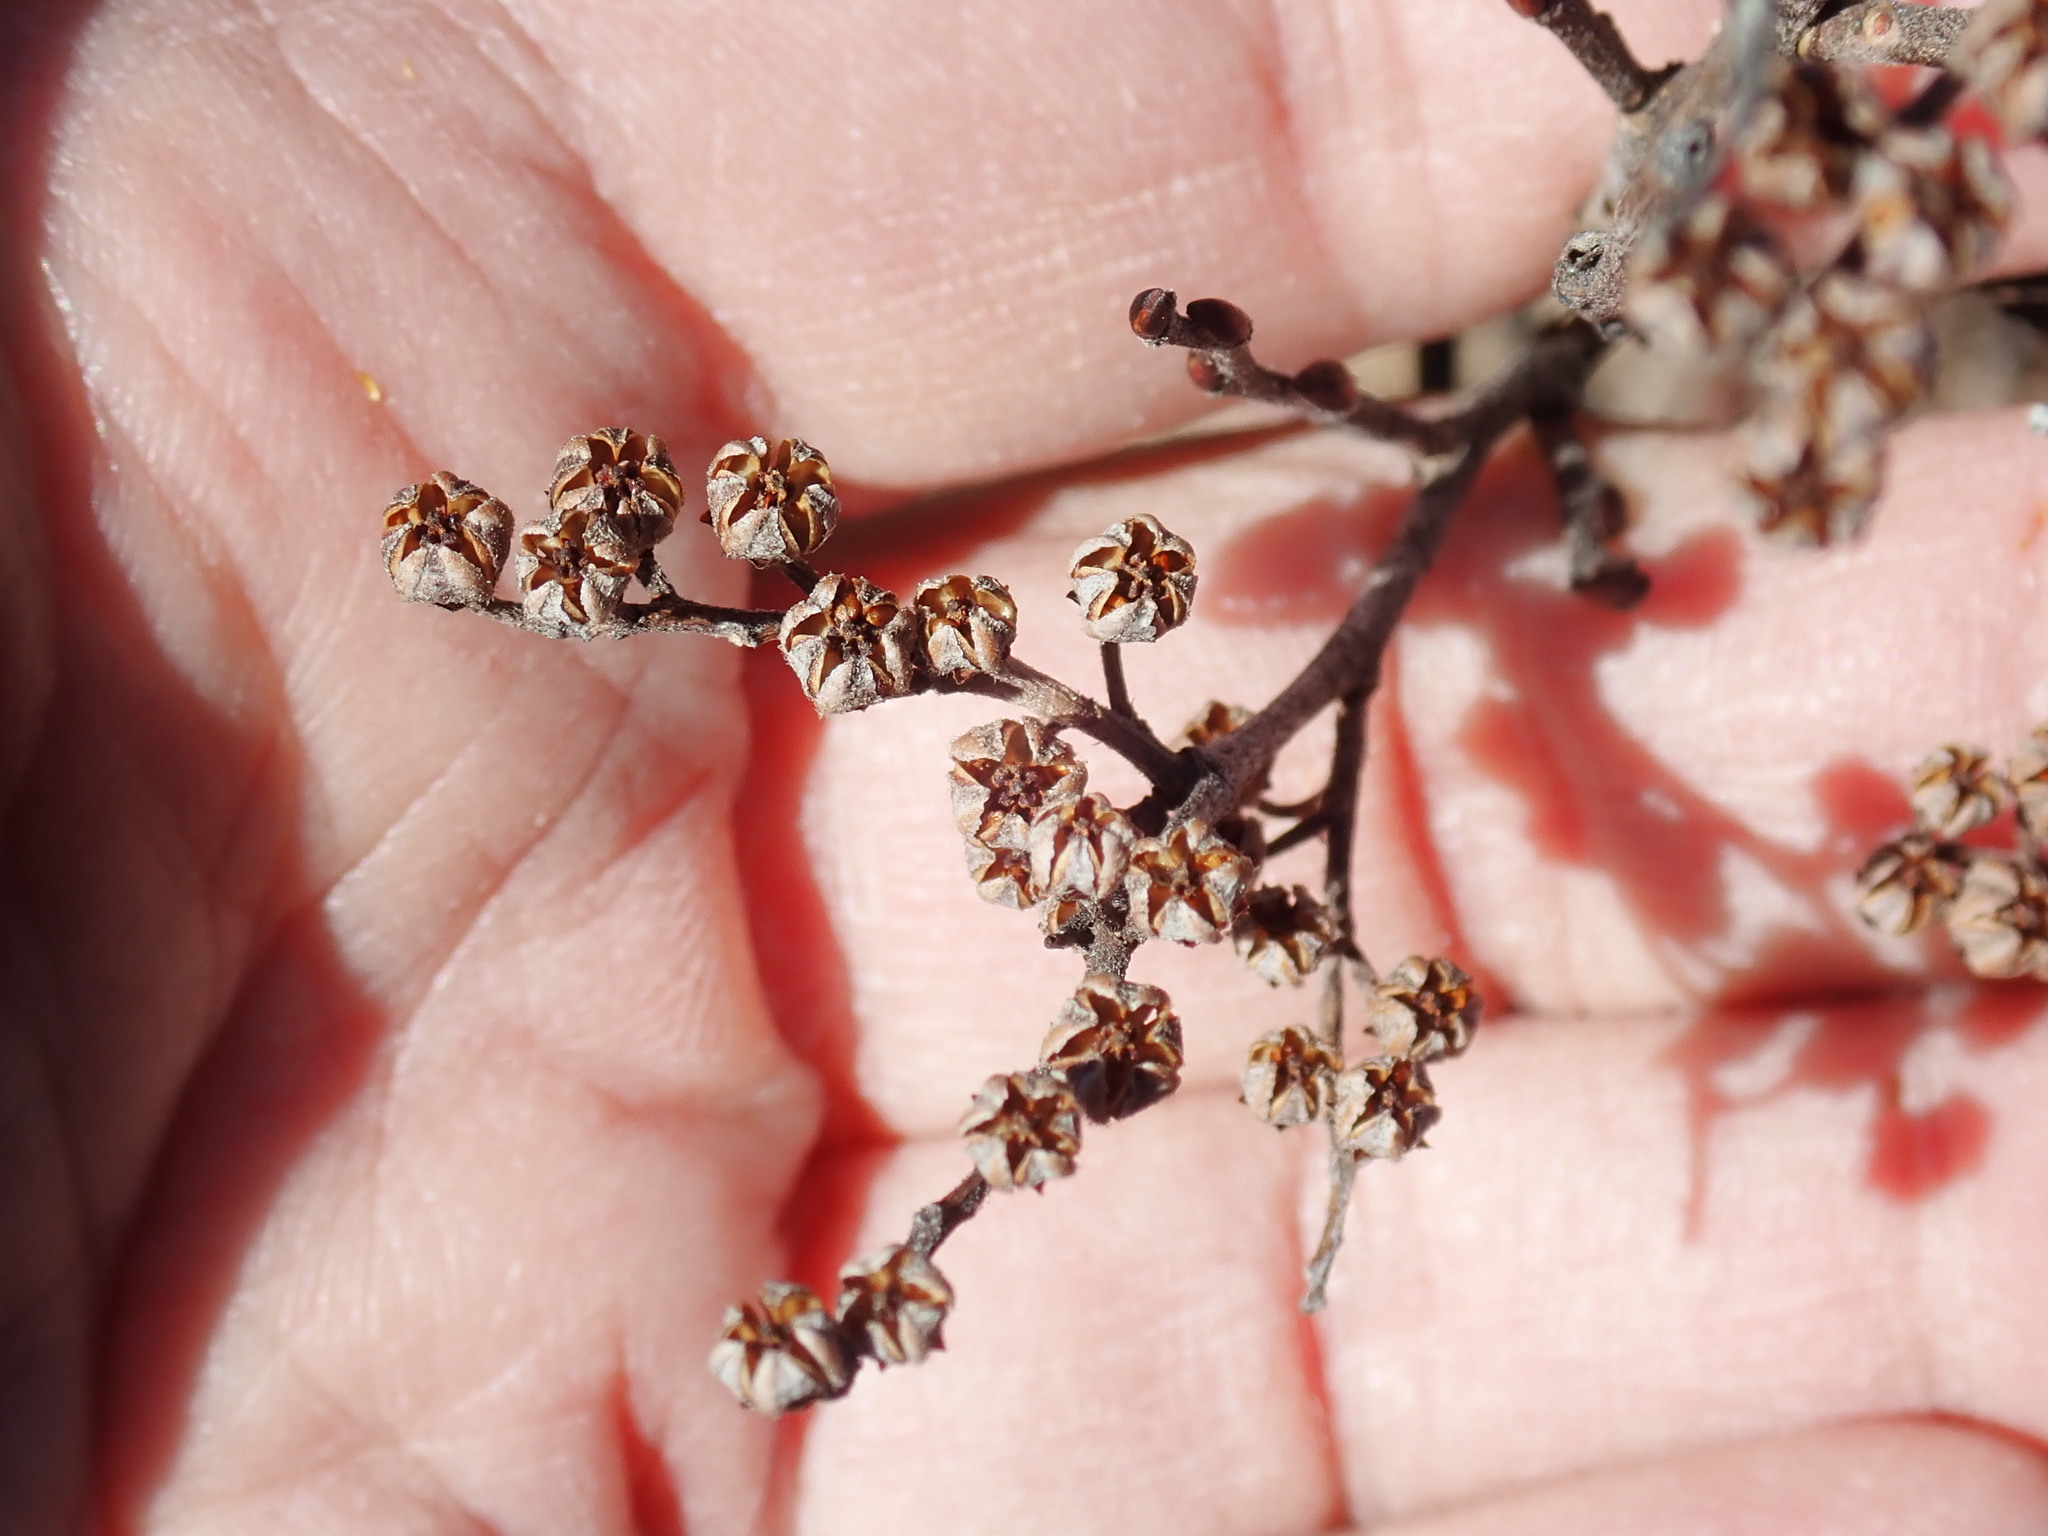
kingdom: Plantae
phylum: Tracheophyta
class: Magnoliopsida
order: Ericales
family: Ericaceae
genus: Lyonia
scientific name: Lyonia ligustrina
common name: Maleberry
